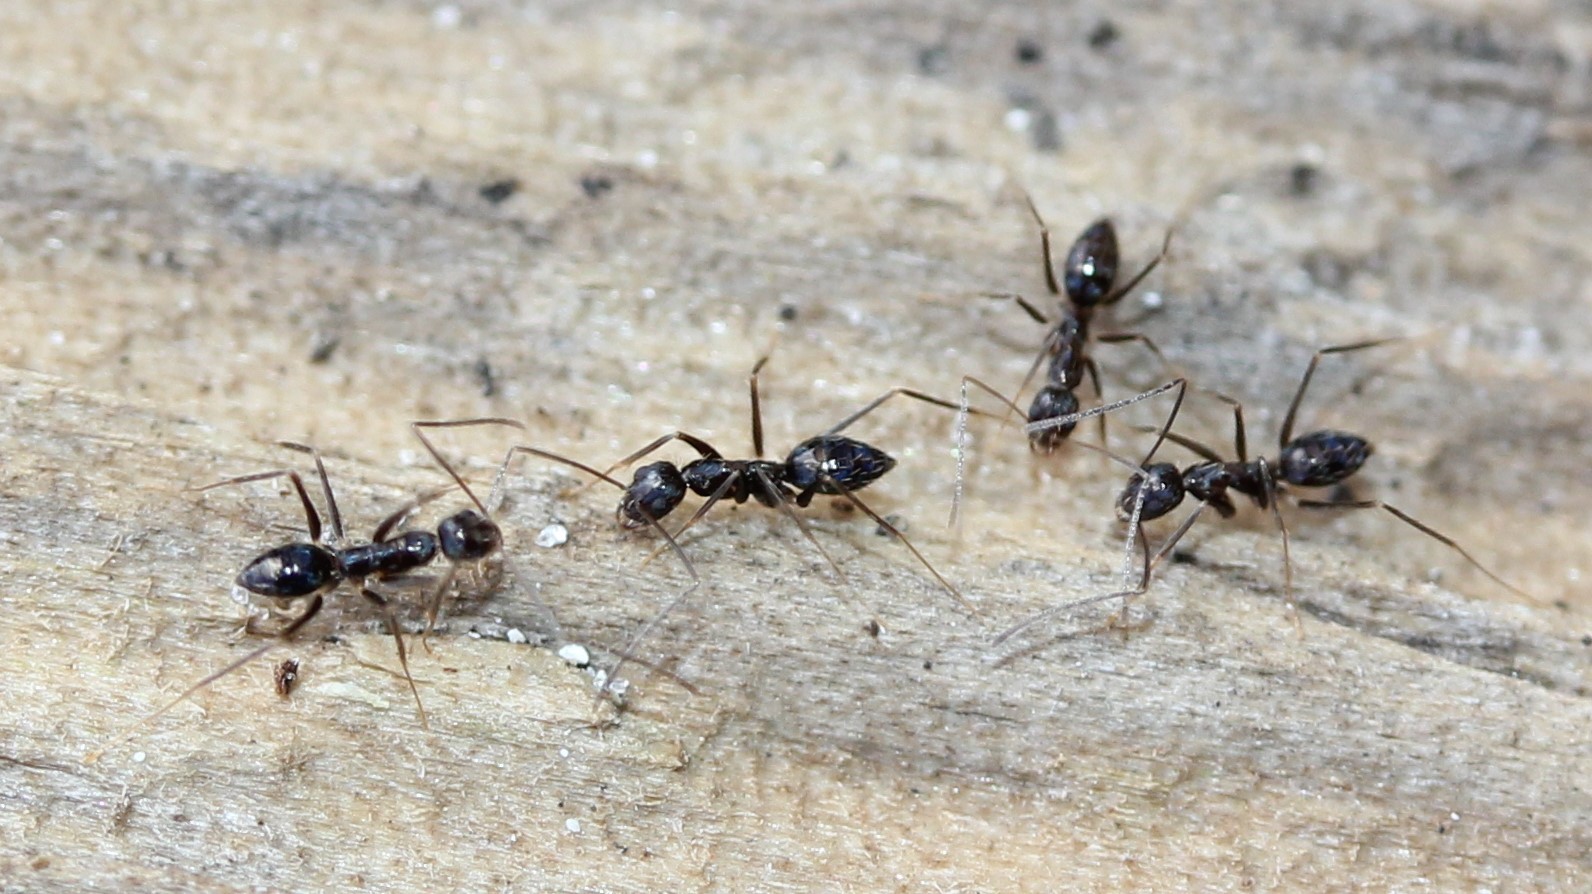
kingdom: Animalia
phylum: Arthropoda
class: Insecta
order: Hymenoptera
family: Formicidae
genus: Paratrechina
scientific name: Paratrechina longicornis
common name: Longhorned crazy ant
